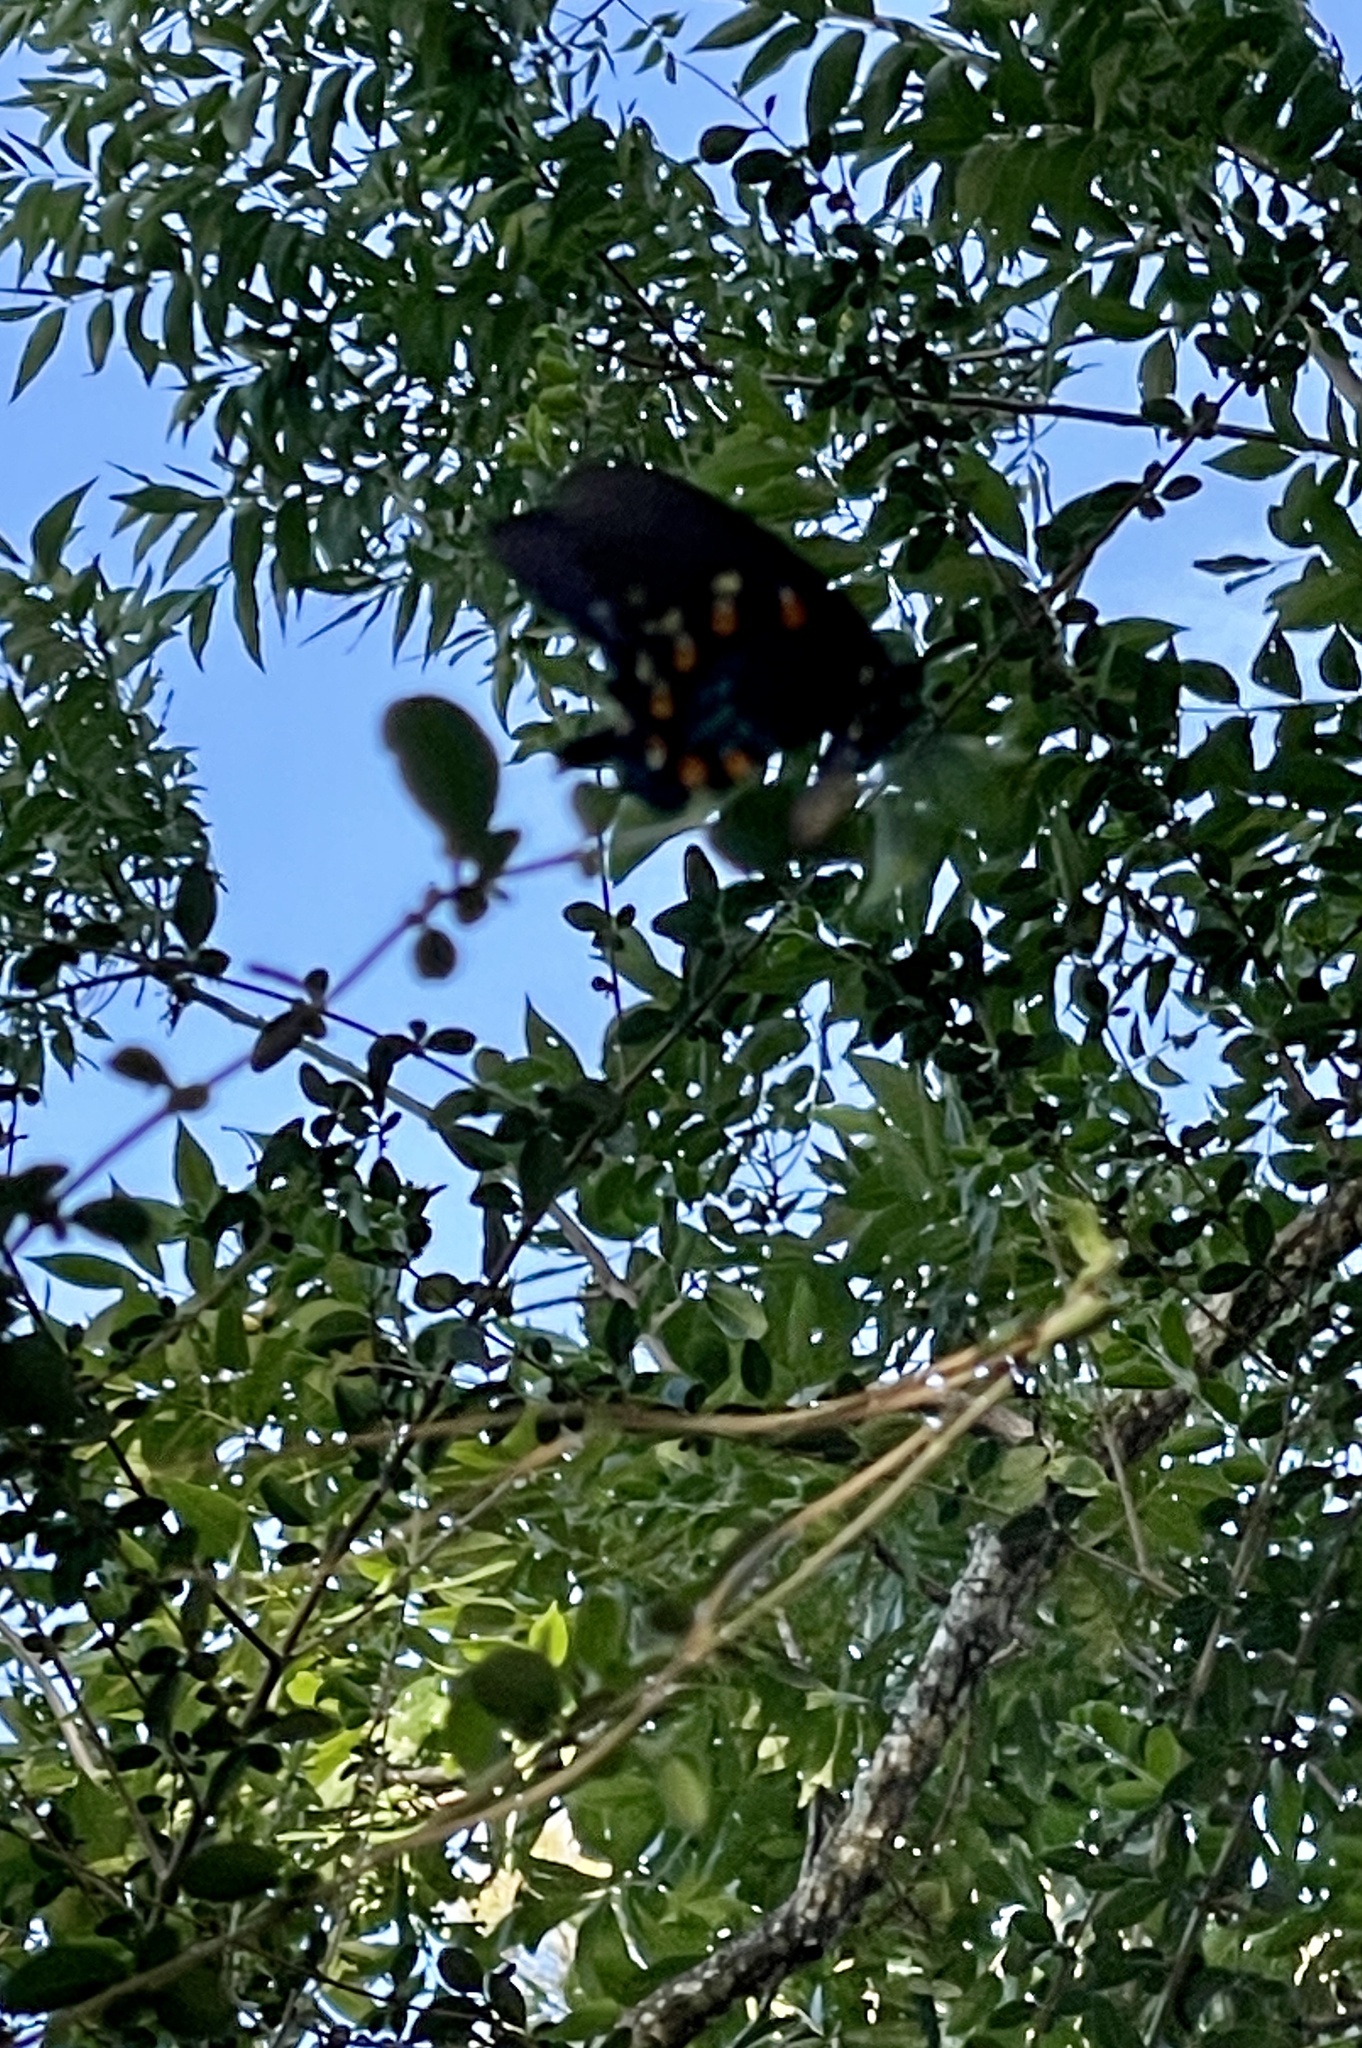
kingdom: Animalia
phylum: Arthropoda
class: Insecta
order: Lepidoptera
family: Papilionidae
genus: Battus
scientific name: Battus philenor
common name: Pipevine swallowtail
